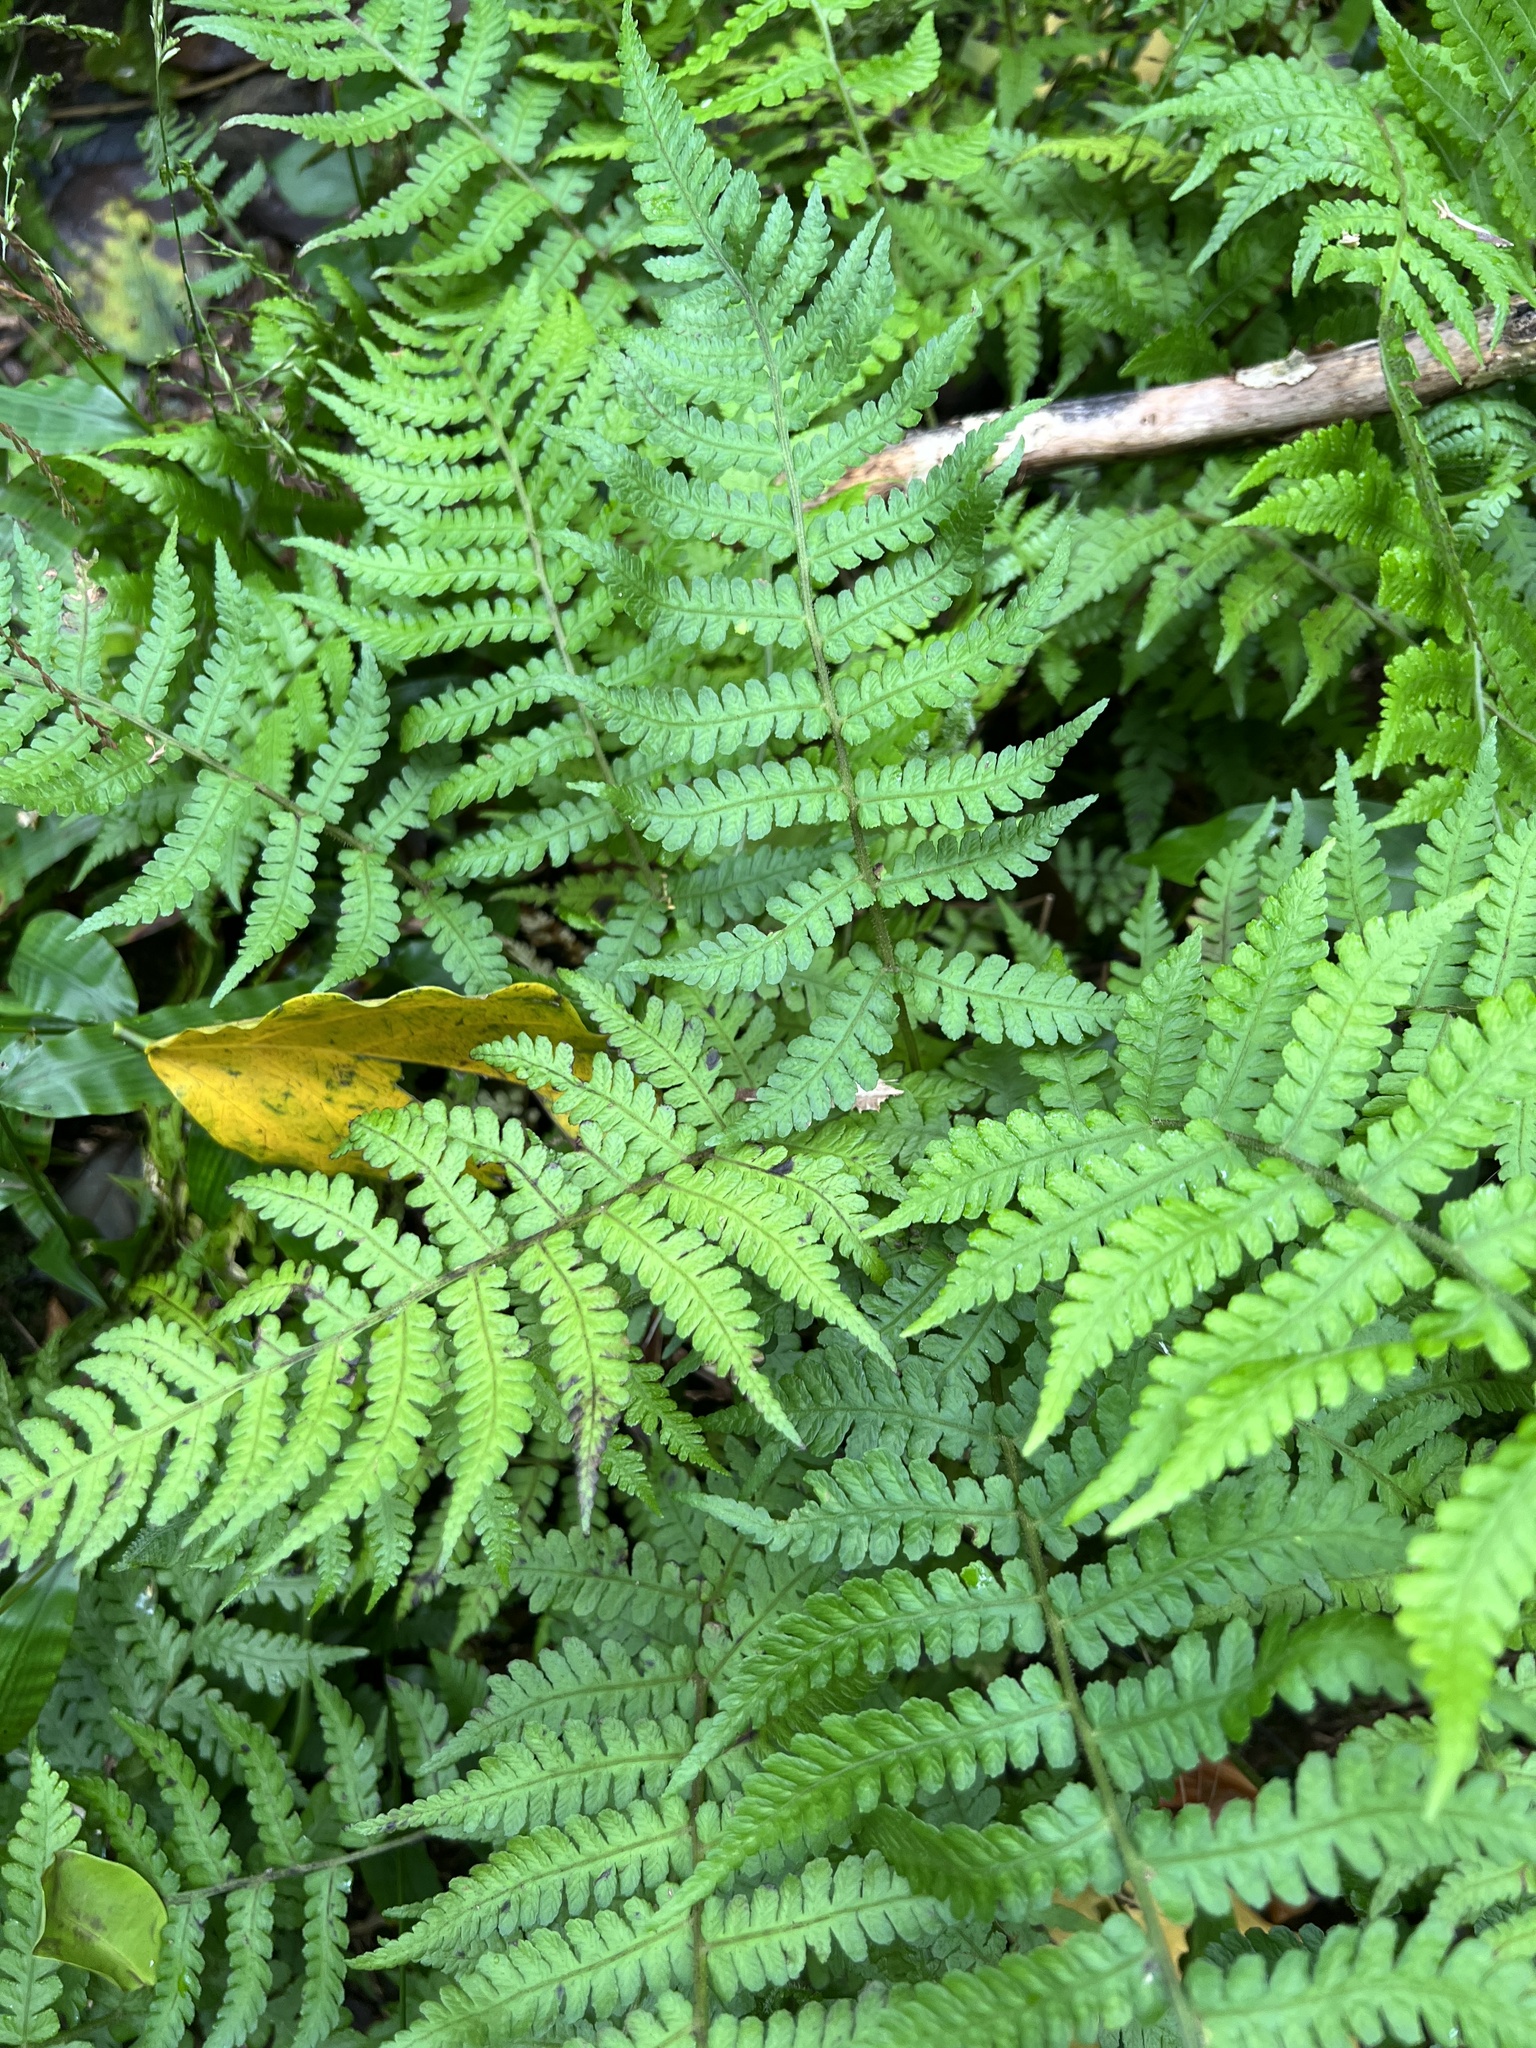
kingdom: Plantae
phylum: Tracheophyta
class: Polypodiopsida
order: Polypodiales
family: Athyriaceae
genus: Deparia
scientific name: Deparia petersenii
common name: Japanese false spleenwort
